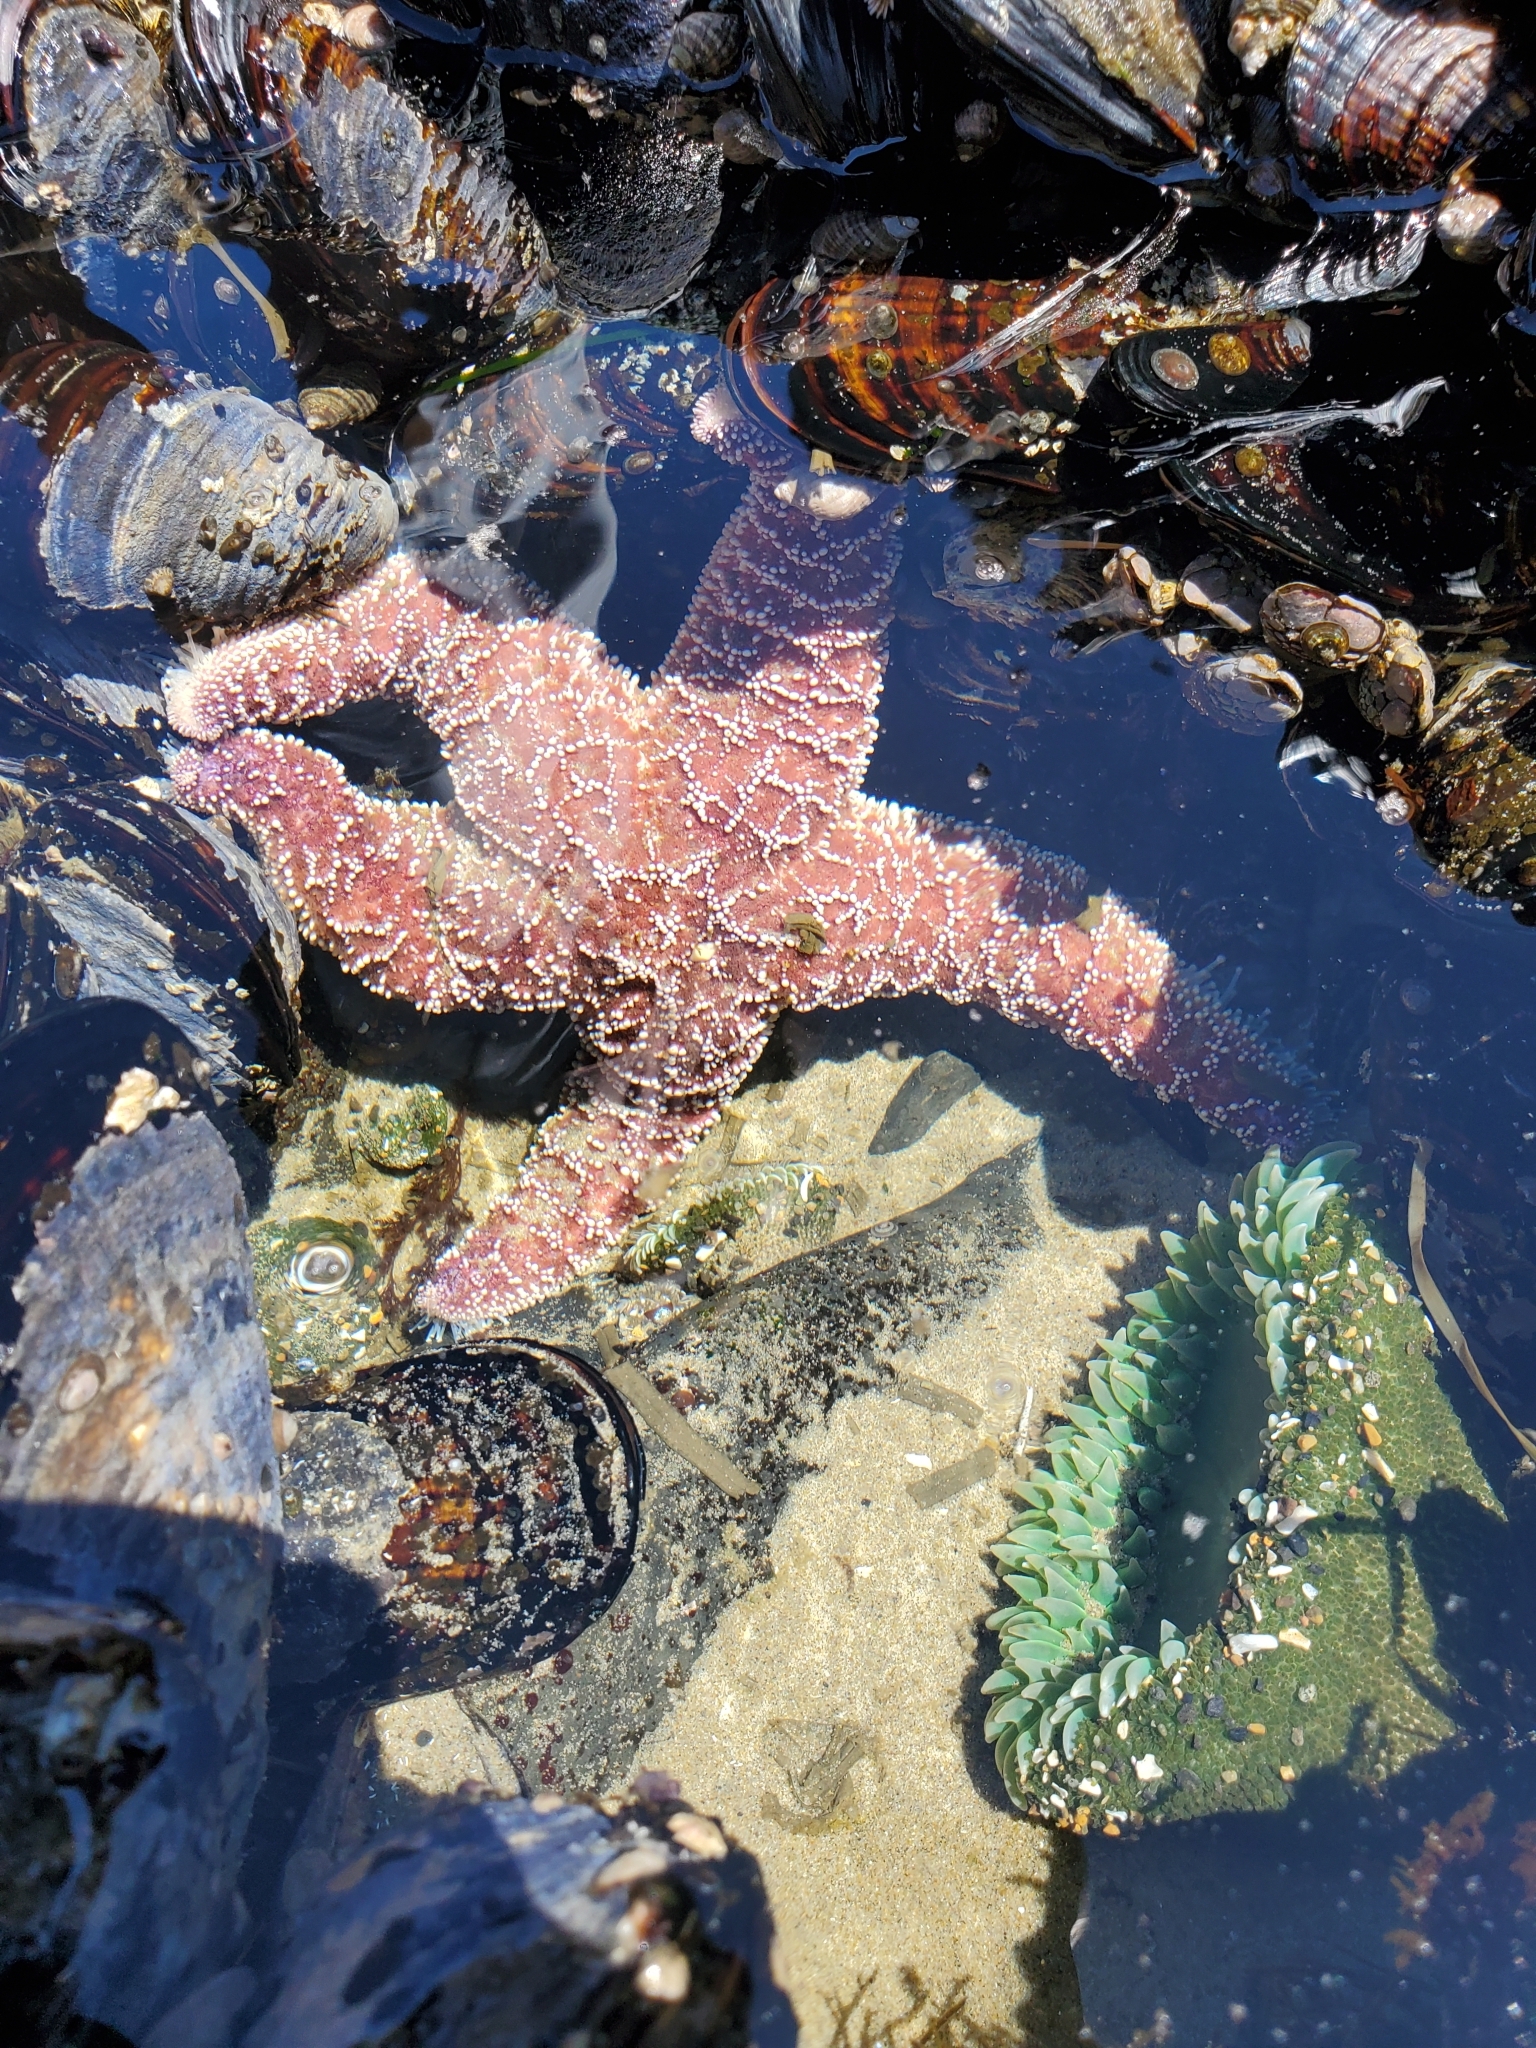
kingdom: Animalia
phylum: Echinodermata
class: Asteroidea
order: Forcipulatida
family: Asteriidae
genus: Pisaster
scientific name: Pisaster ochraceus
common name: Ochre stars
